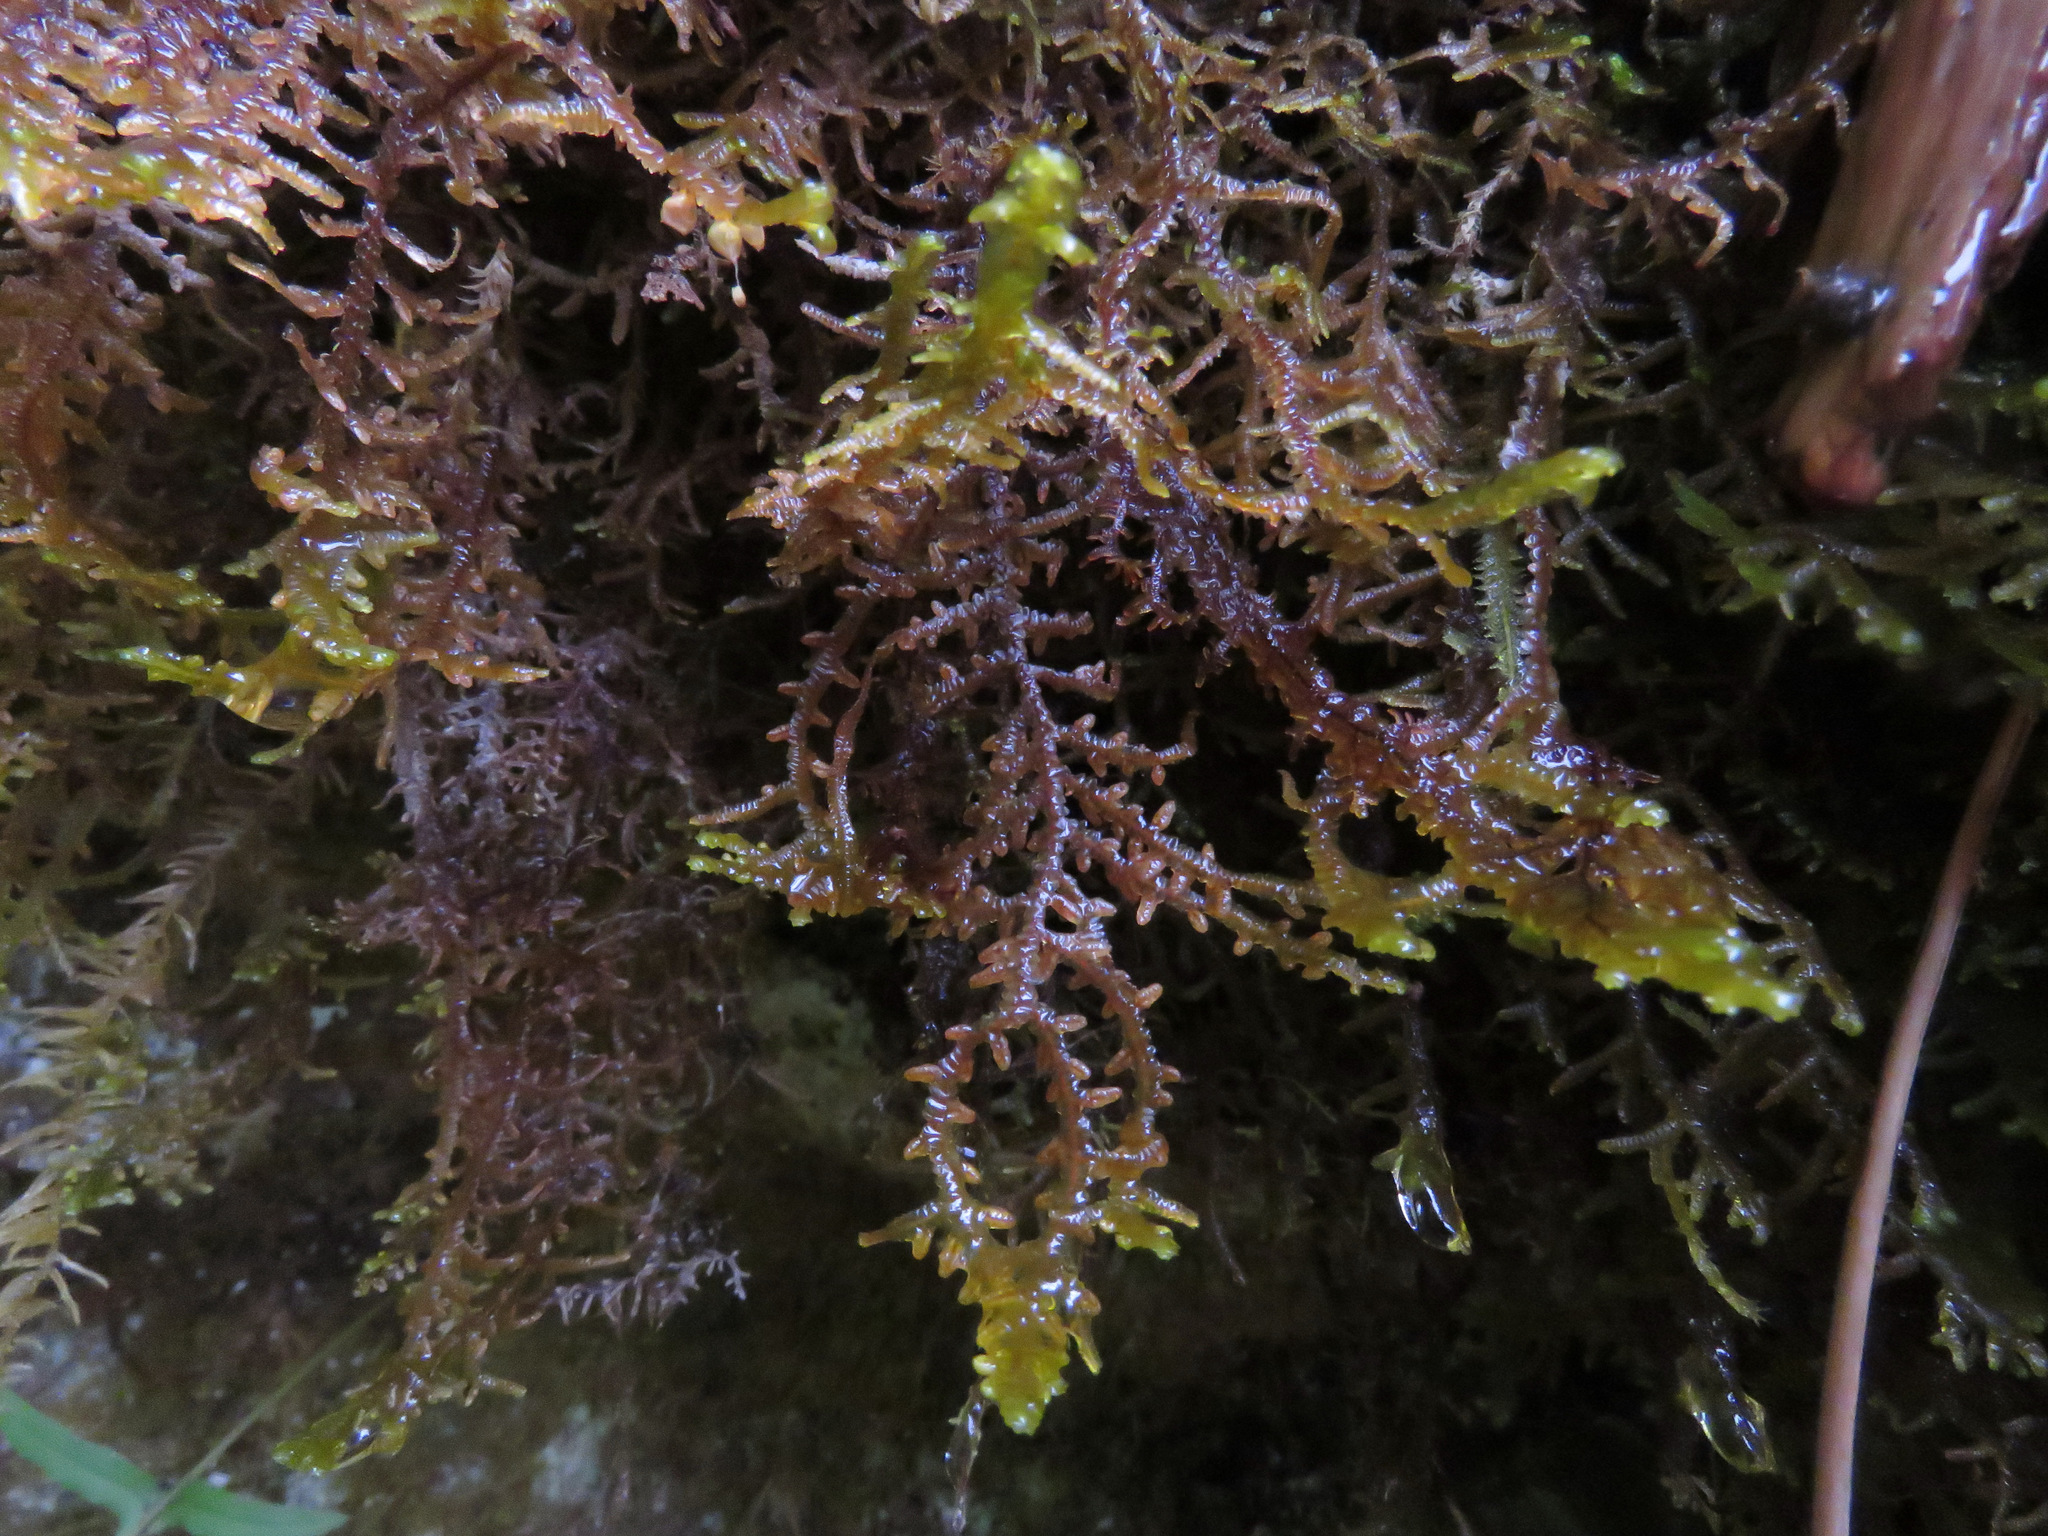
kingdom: Plantae
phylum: Marchantiophyta
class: Jungermanniopsida
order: Porellales
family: Porellaceae
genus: Porella
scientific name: Porella navicularis
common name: Tree ruffle liverwort
